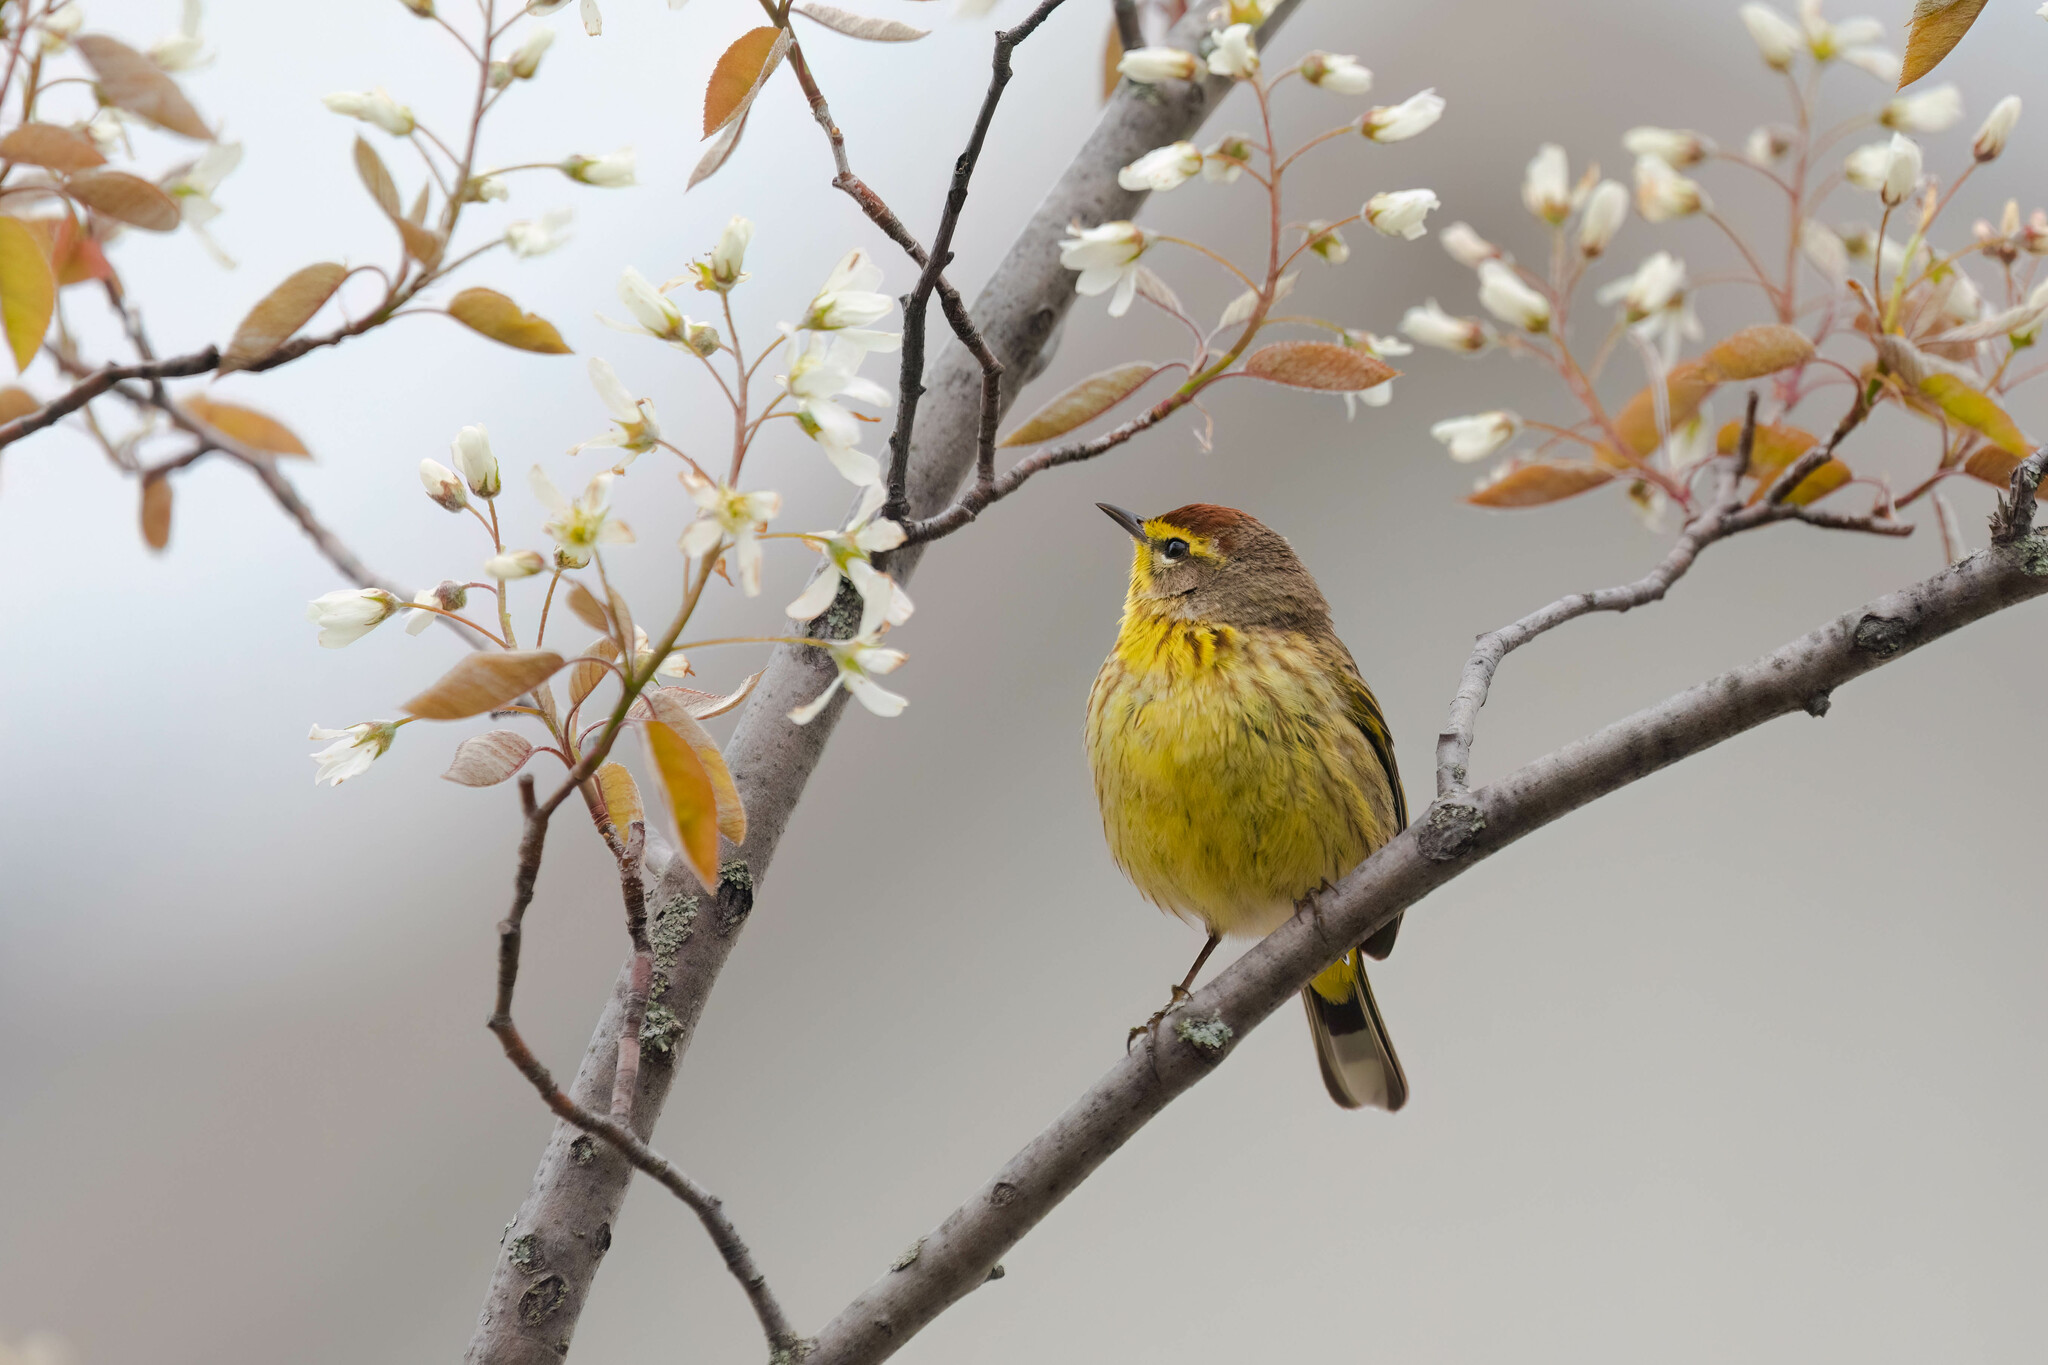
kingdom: Animalia
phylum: Chordata
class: Aves
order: Passeriformes
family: Parulidae
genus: Setophaga
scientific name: Setophaga palmarum
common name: Palm warbler
